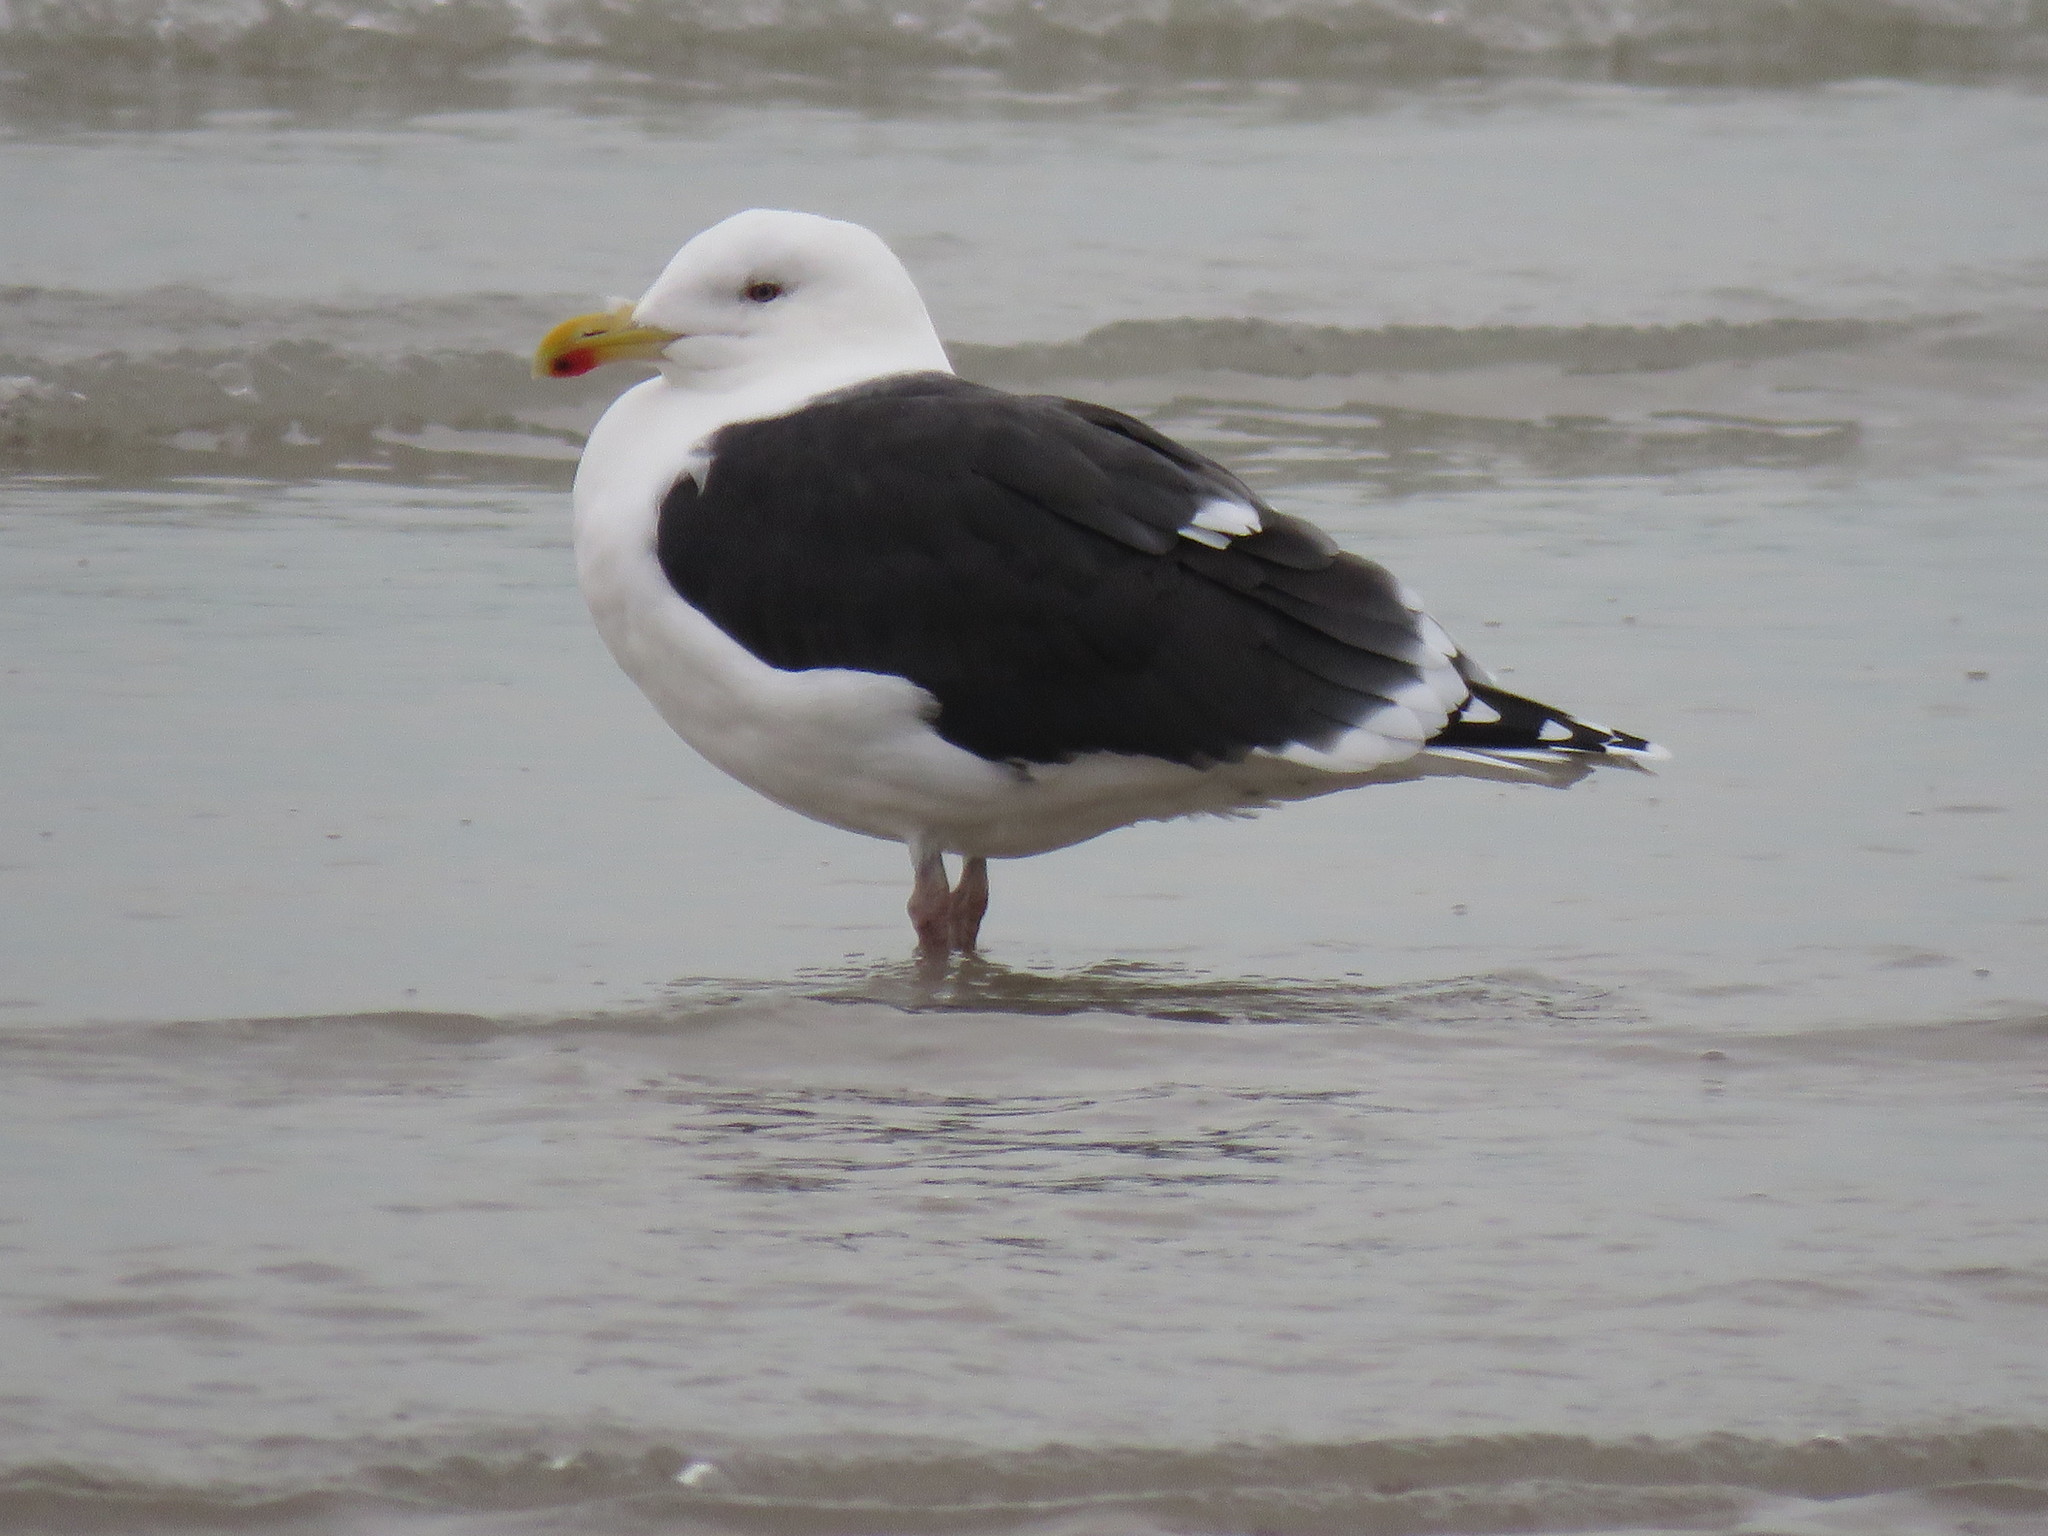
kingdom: Animalia
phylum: Chordata
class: Aves
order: Charadriiformes
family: Laridae
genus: Larus
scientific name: Larus marinus
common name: Great black-backed gull
